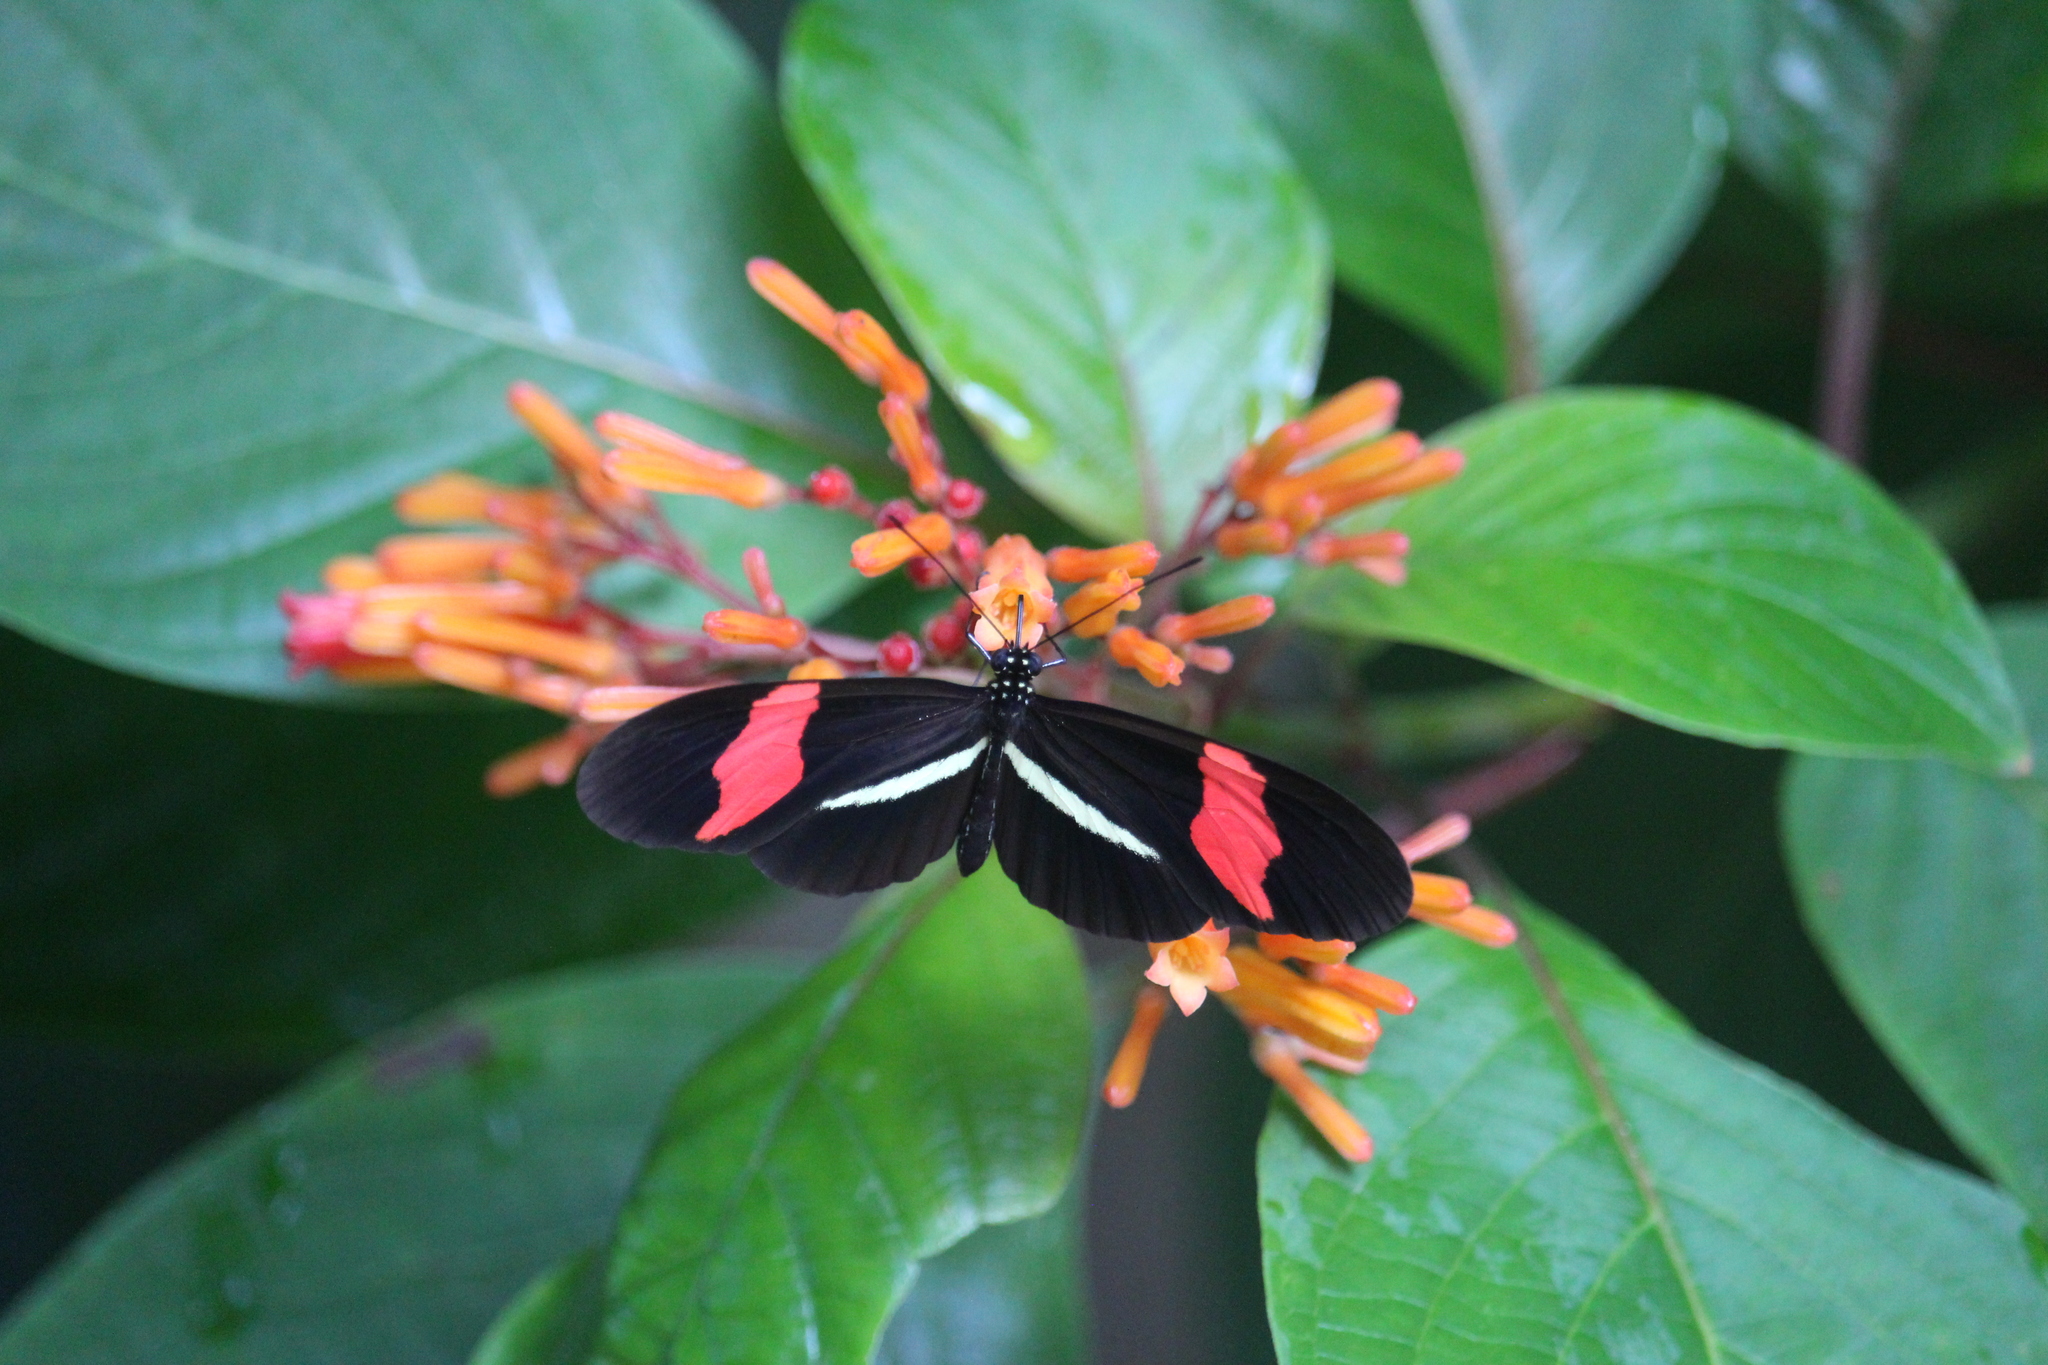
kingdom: Animalia
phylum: Arthropoda
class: Insecta
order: Lepidoptera
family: Nymphalidae
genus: Heliconius
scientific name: Heliconius erato
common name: Common patch longwing
